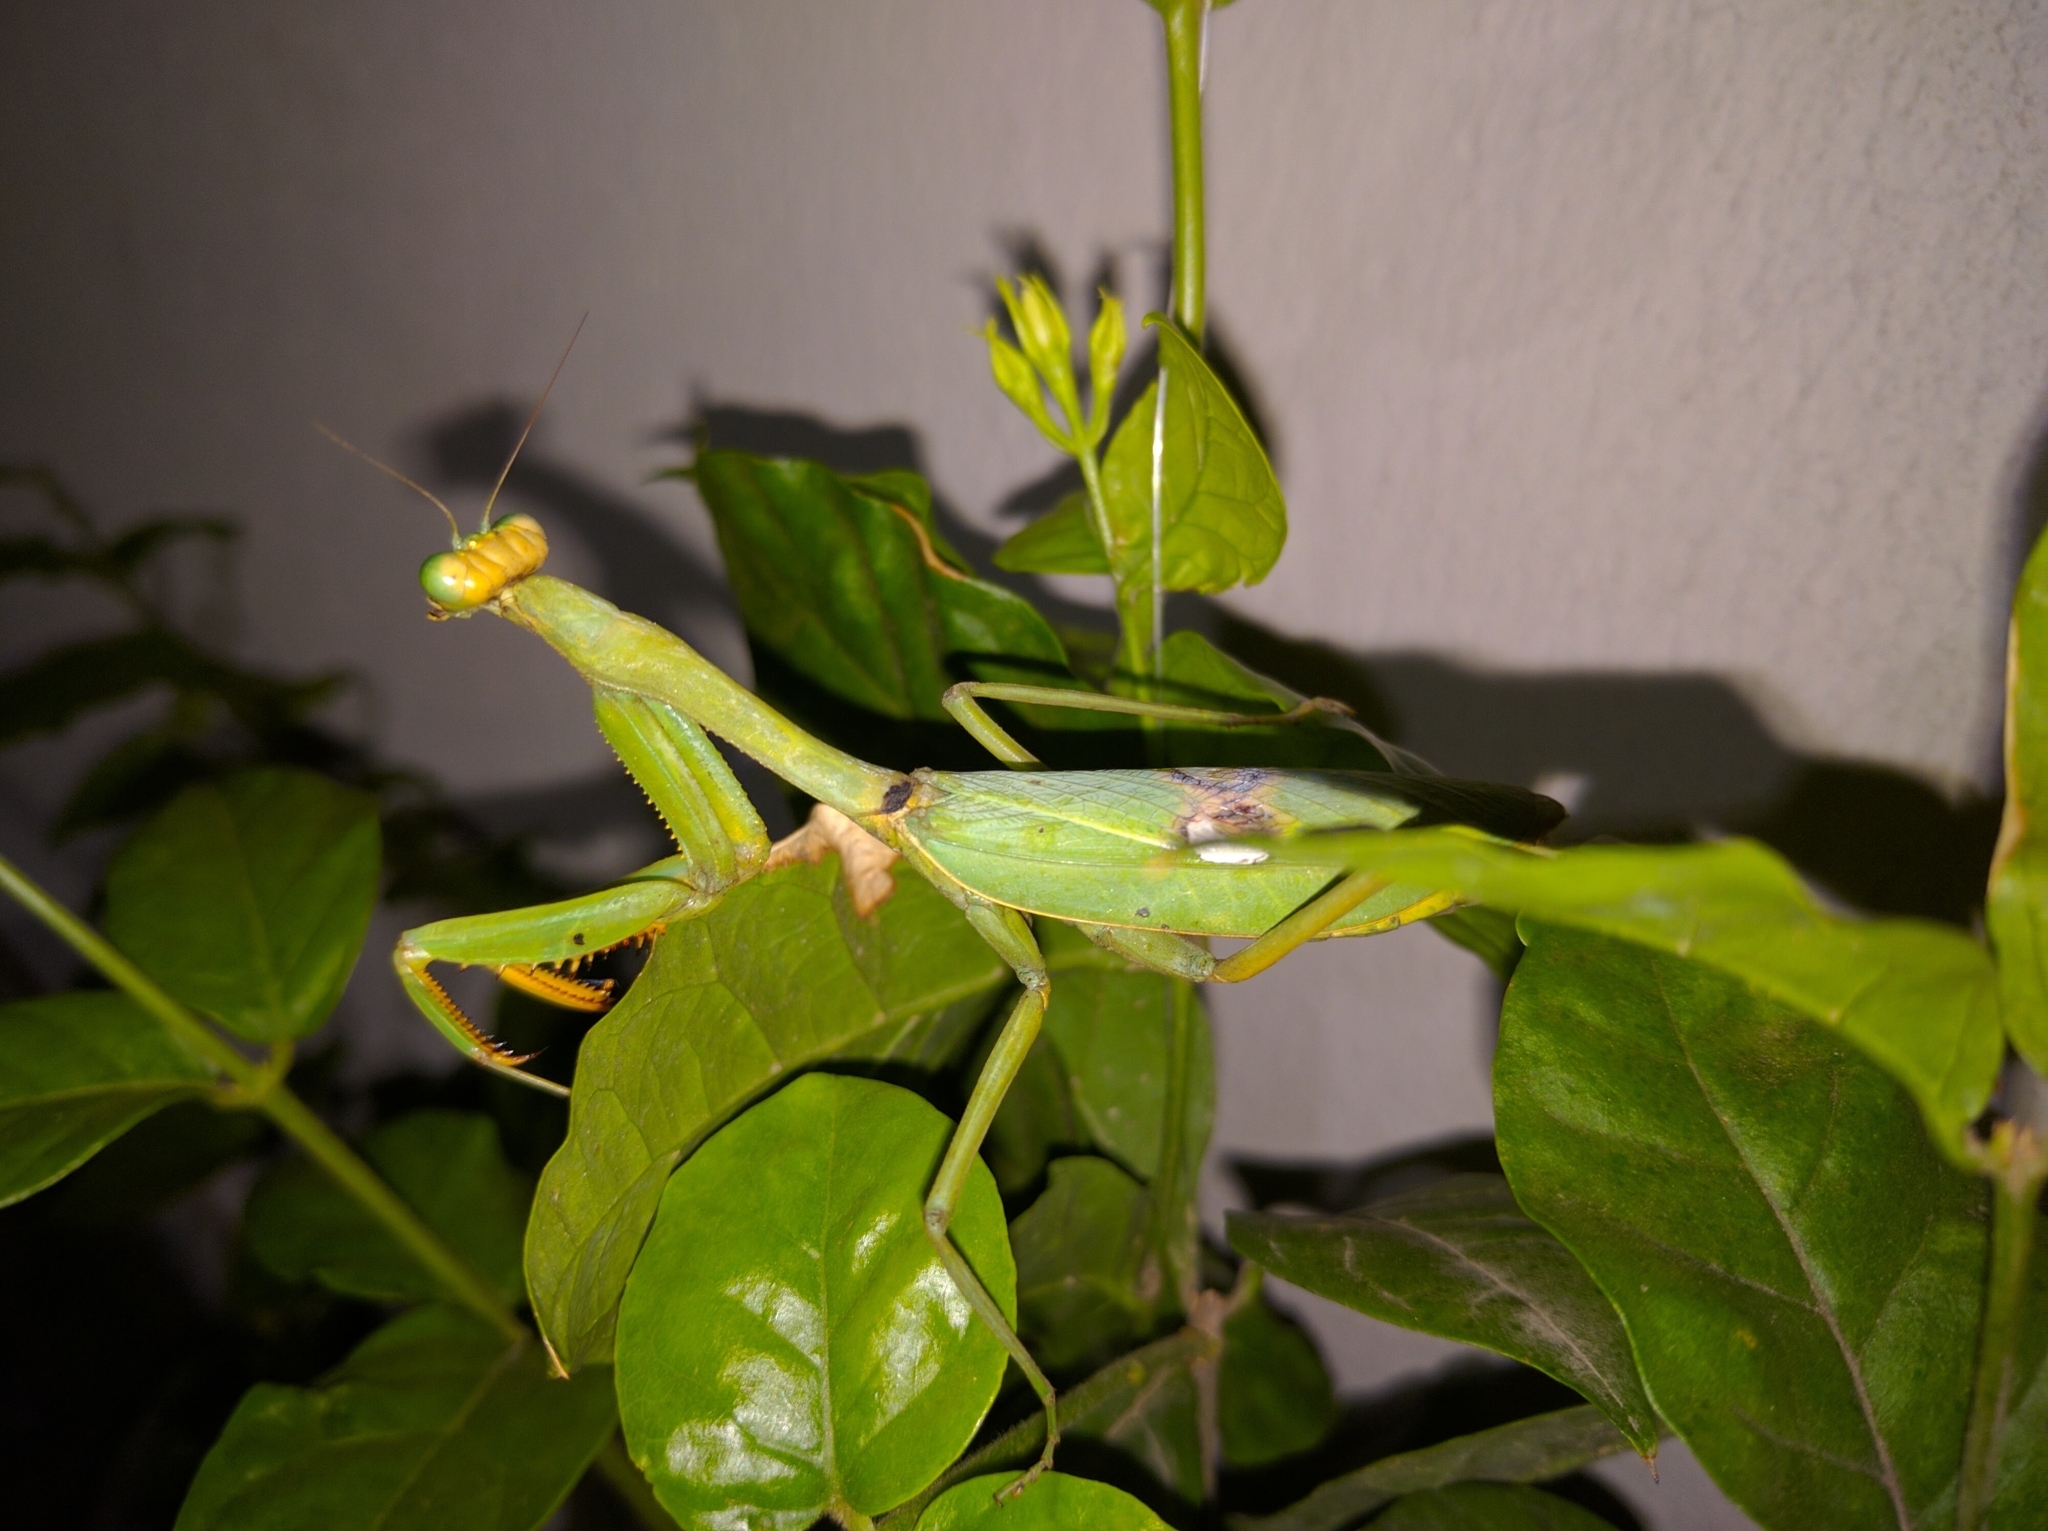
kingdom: Animalia
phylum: Arthropoda
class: Insecta
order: Mantodea
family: Mantidae
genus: Stagmatoptera
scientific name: Stagmatoptera hyaloptera
